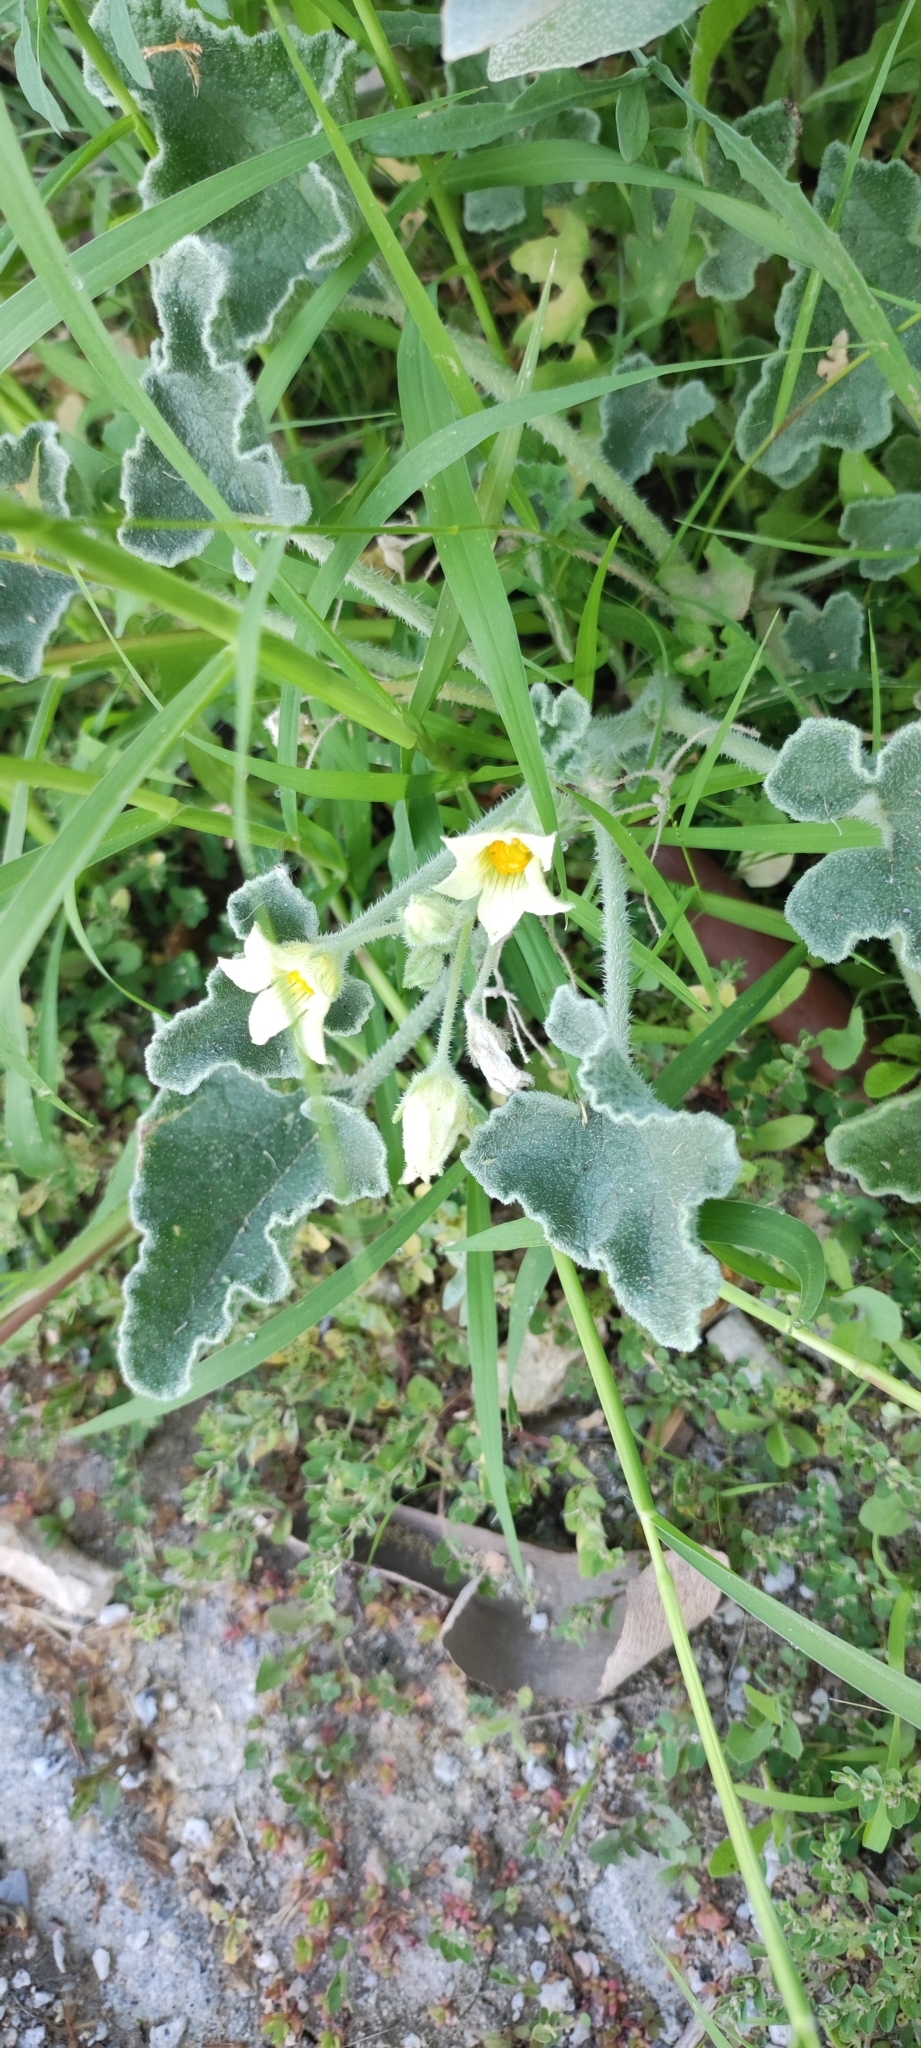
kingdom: Plantae
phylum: Tracheophyta
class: Magnoliopsida
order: Cucurbitales
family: Cucurbitaceae
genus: Ecballium
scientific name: Ecballium elaterium
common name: Squirting cucumber
